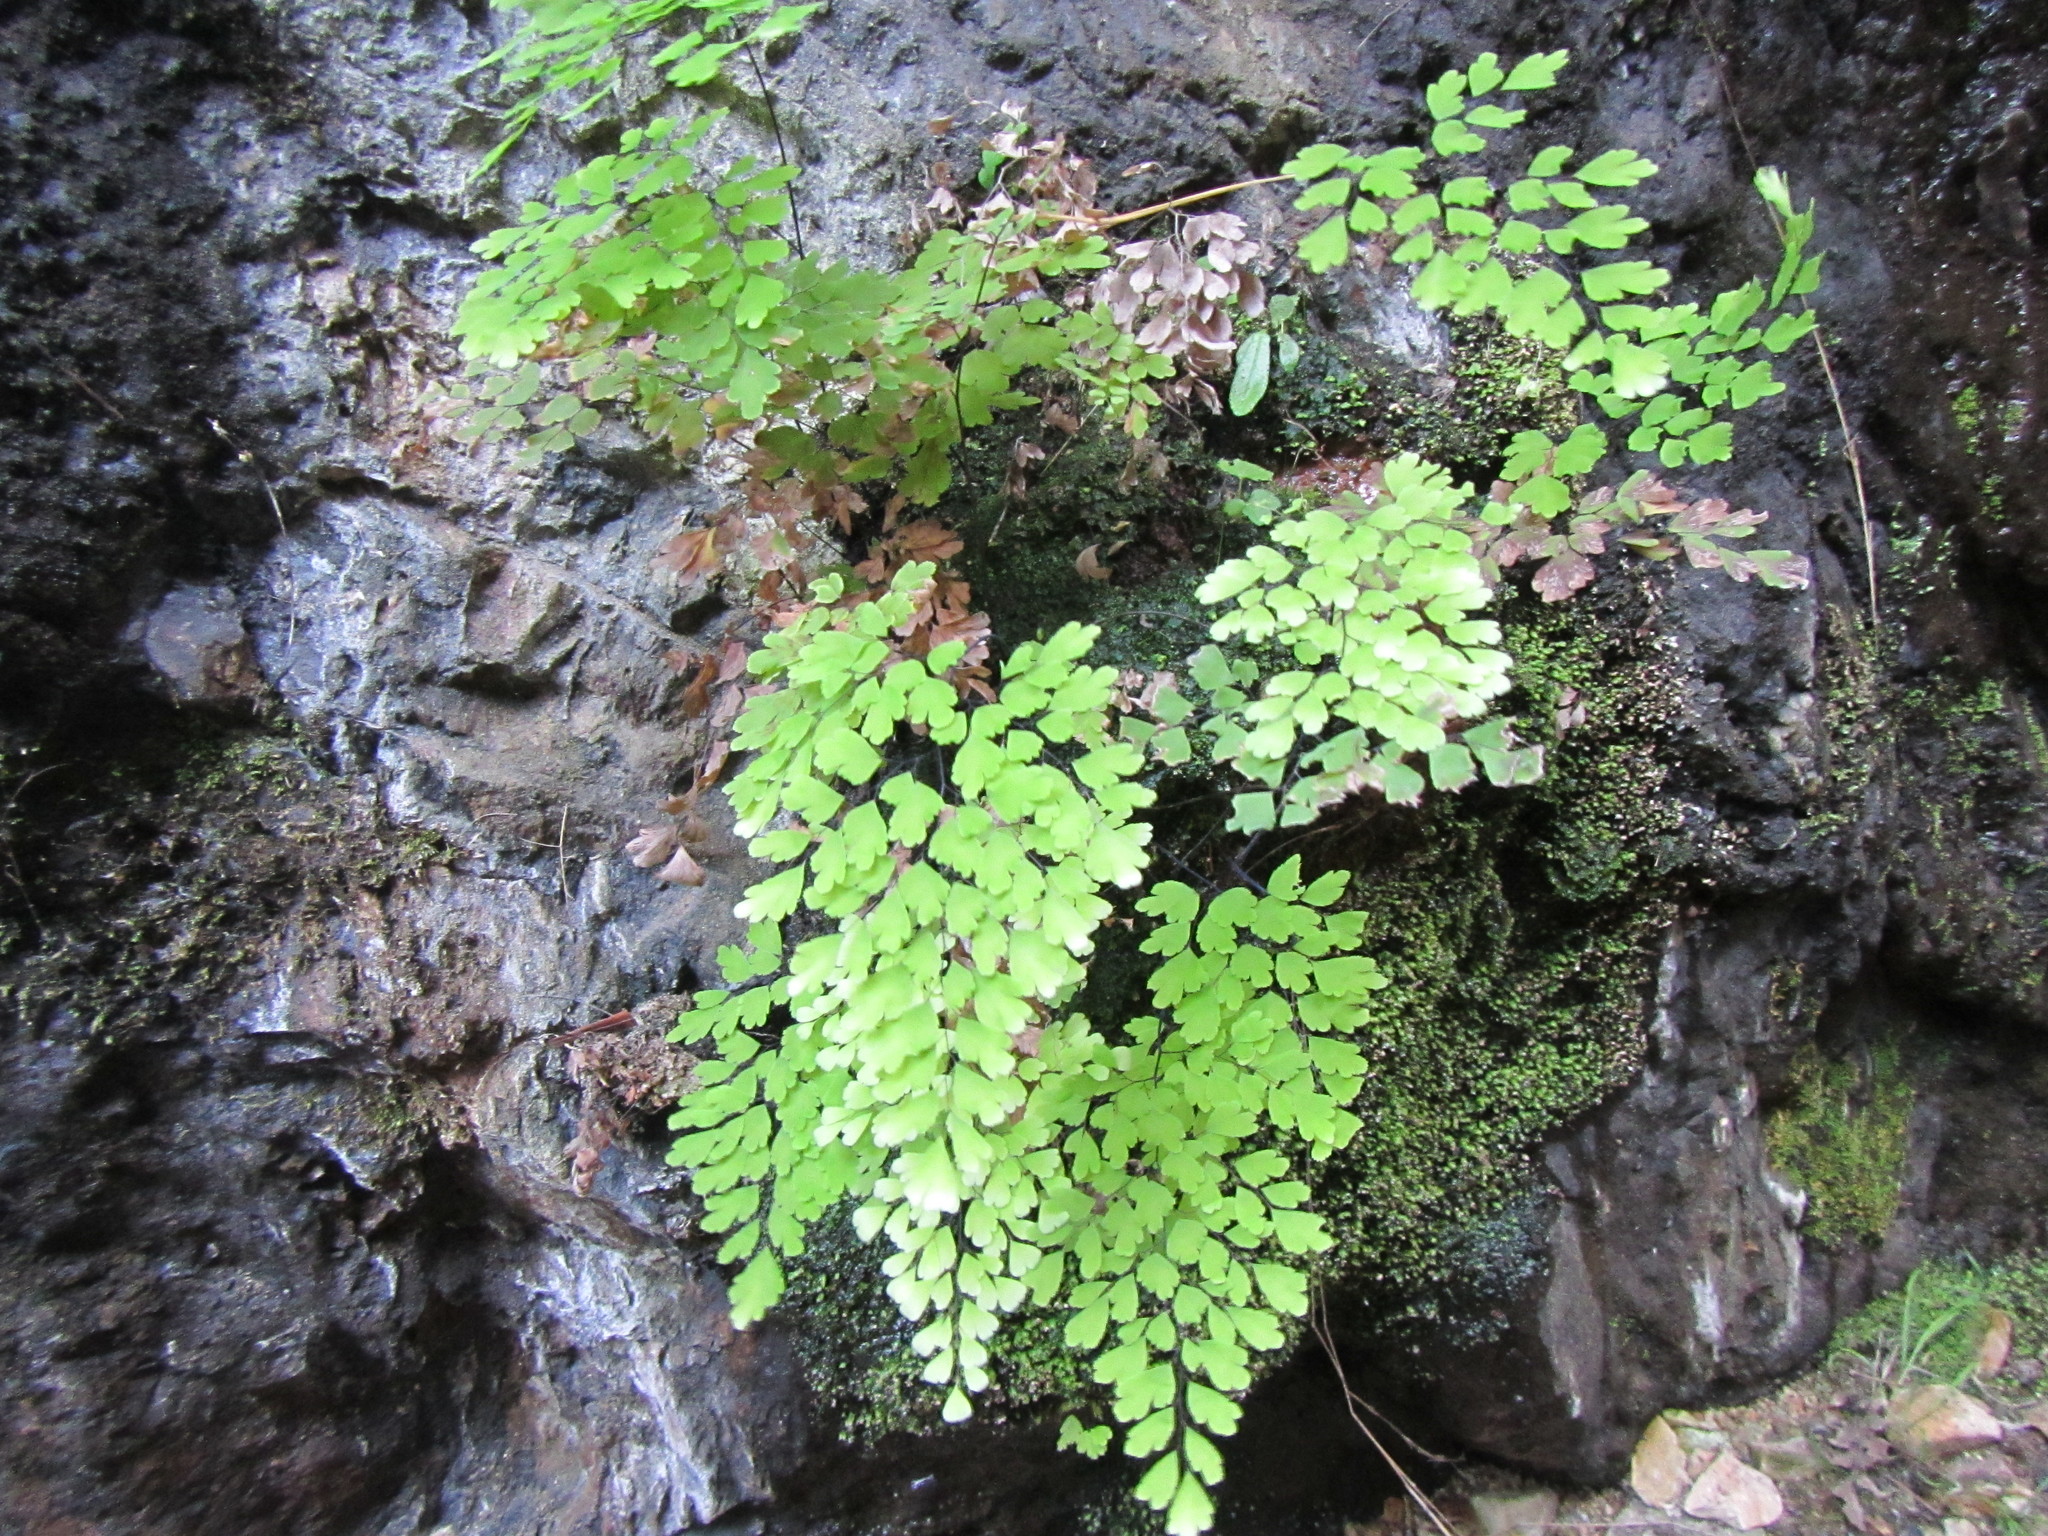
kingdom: Plantae
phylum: Tracheophyta
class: Polypodiopsida
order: Polypodiales
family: Pteridaceae
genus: Adiantum
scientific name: Adiantum capillus-veneris
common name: Maidenhair fern
